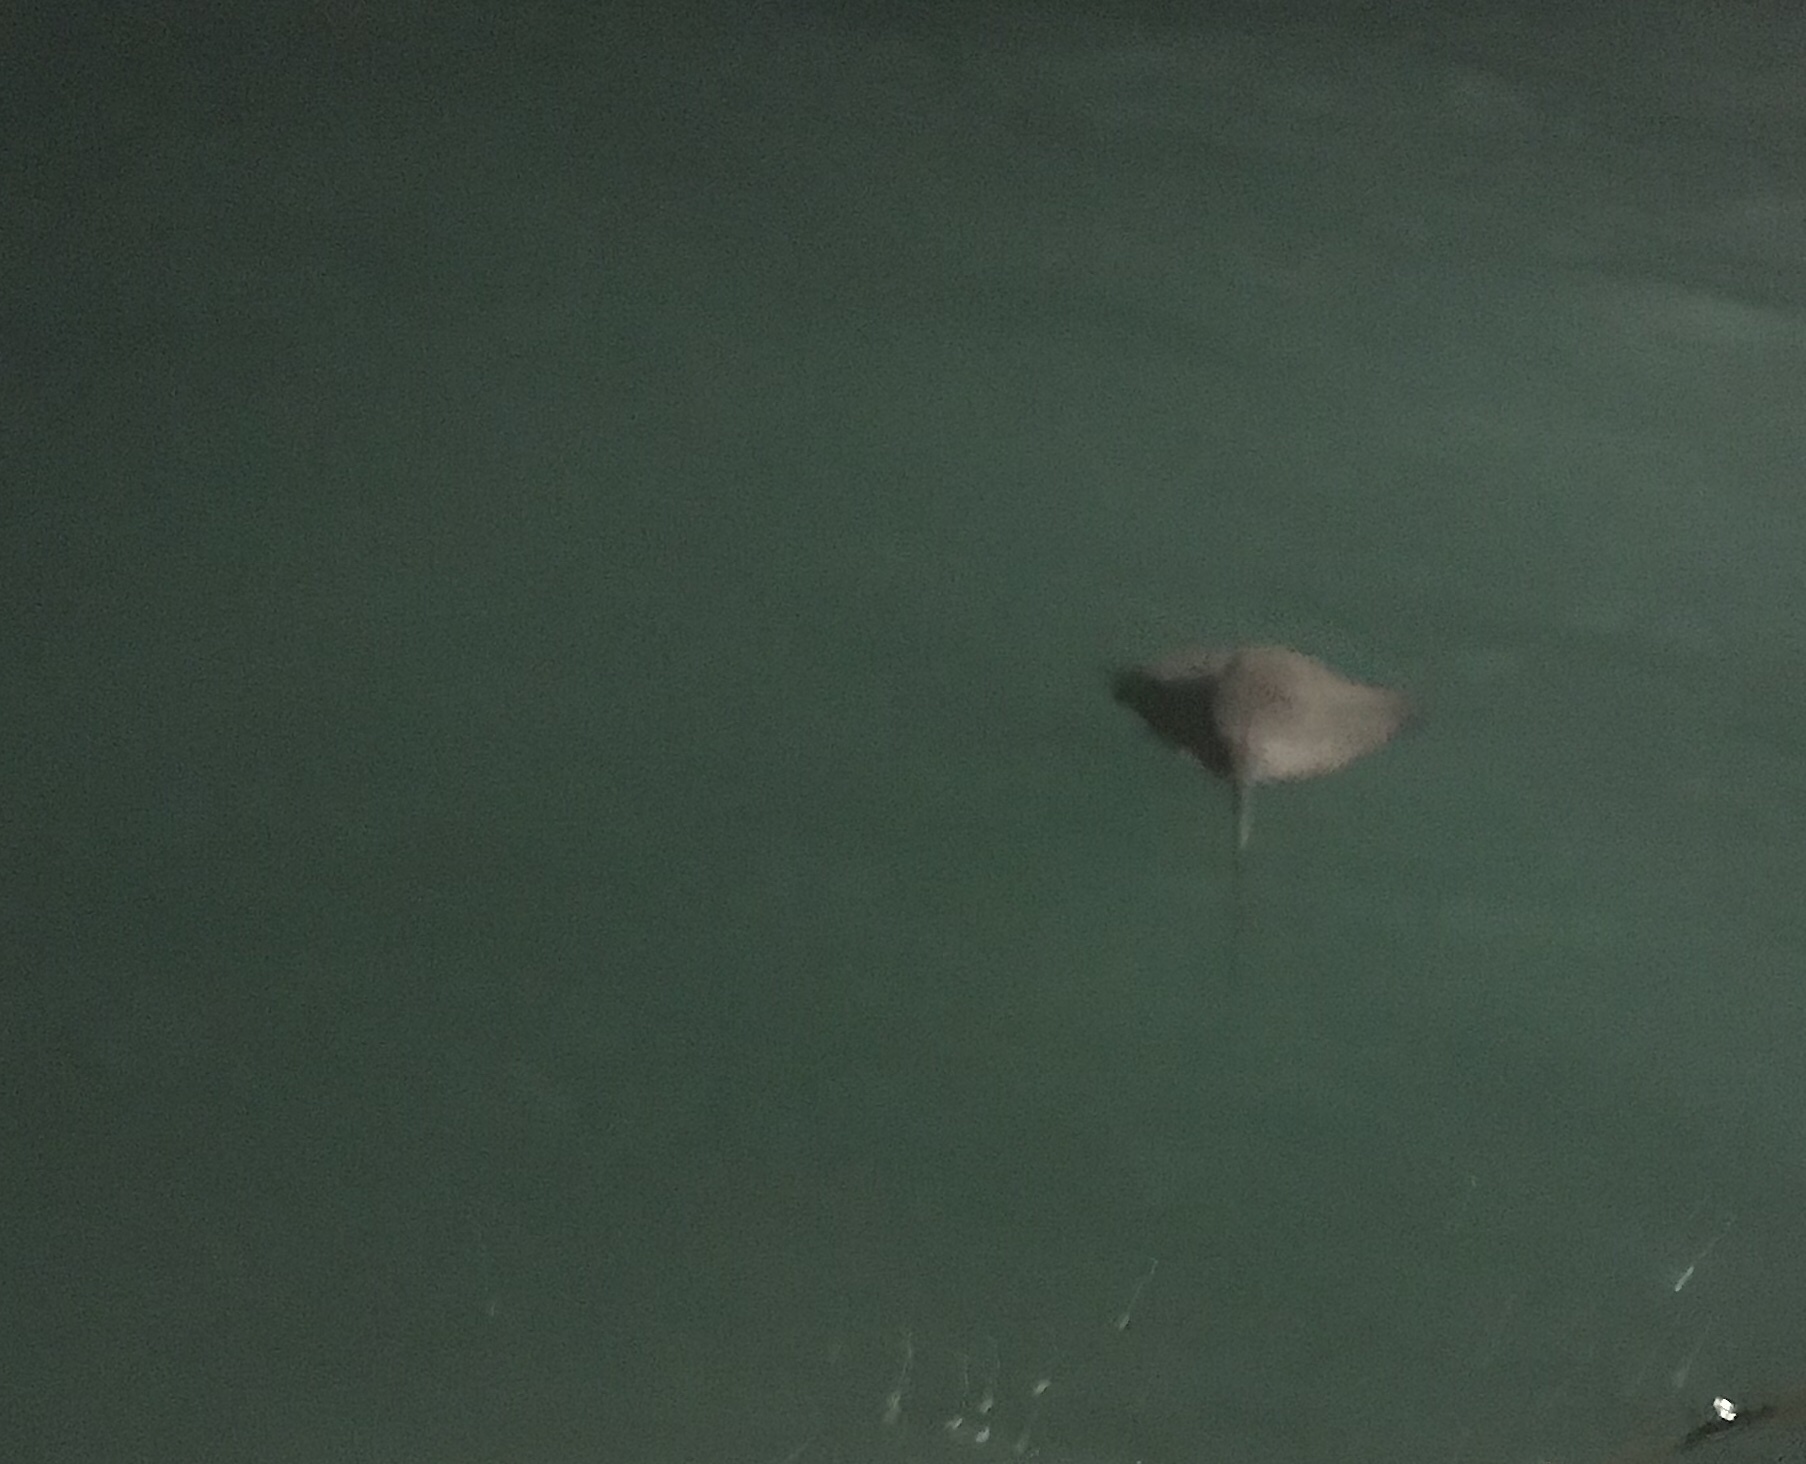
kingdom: Animalia
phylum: Chordata
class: Elasmobranchii
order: Myliobatiformes
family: Myliobatidae
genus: Myliobatis
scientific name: Myliobatis californica
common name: Bat ray
